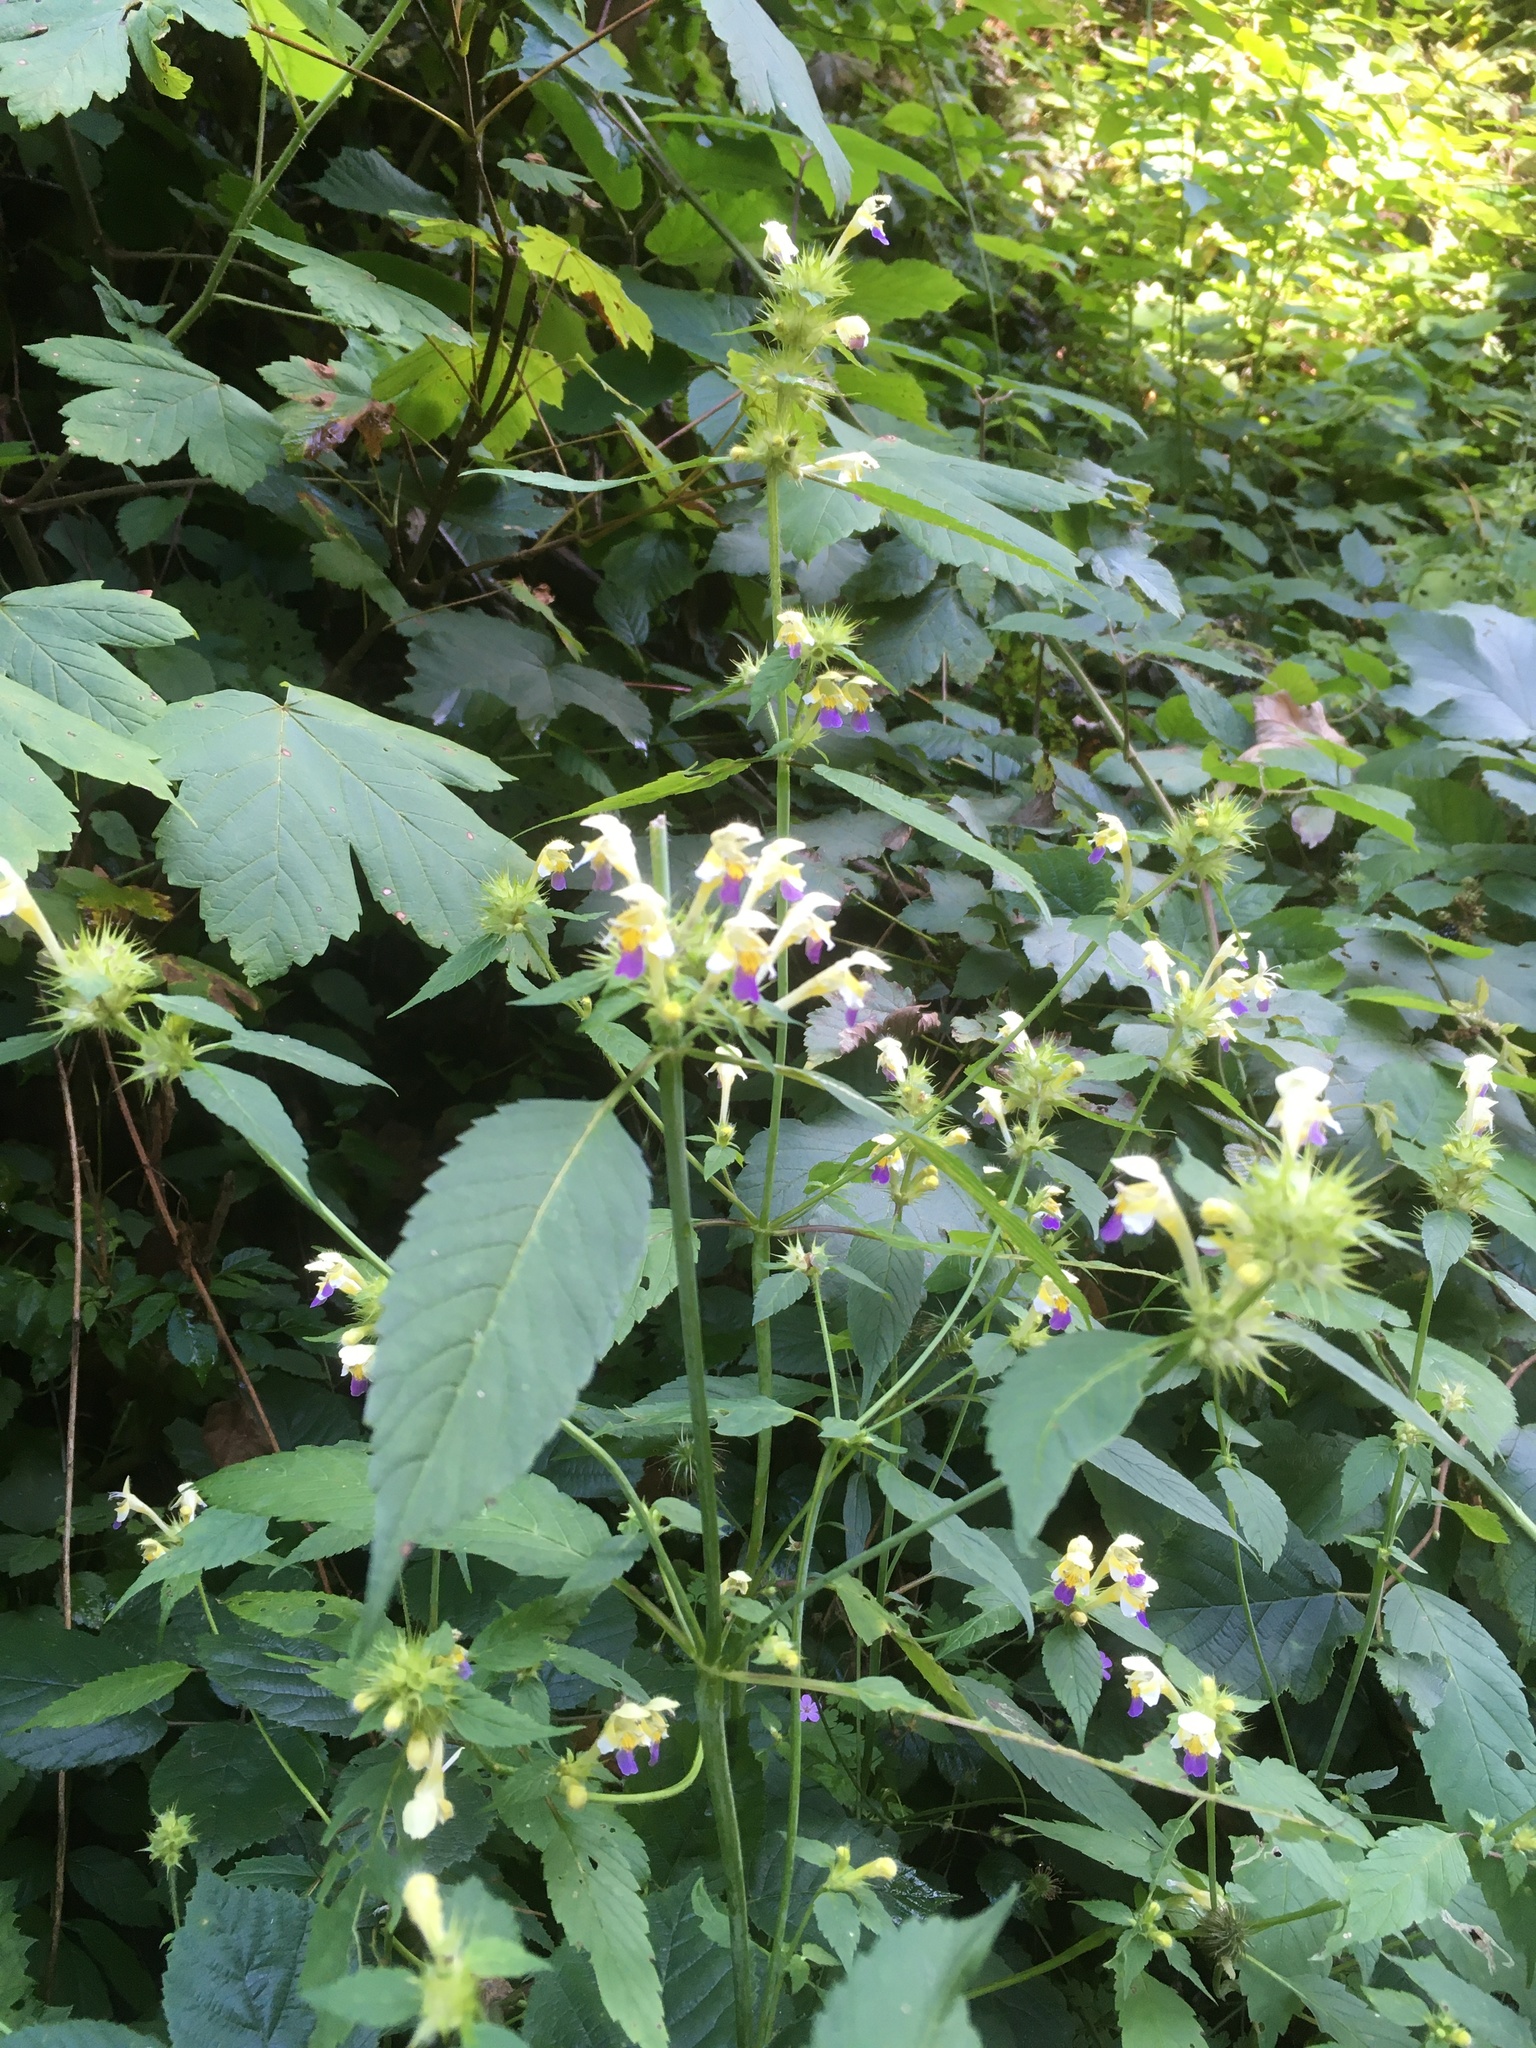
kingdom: Plantae
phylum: Tracheophyta
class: Magnoliopsida
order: Lamiales
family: Lamiaceae
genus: Galeopsis
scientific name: Galeopsis speciosa
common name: Large-flowered hemp-nettle
